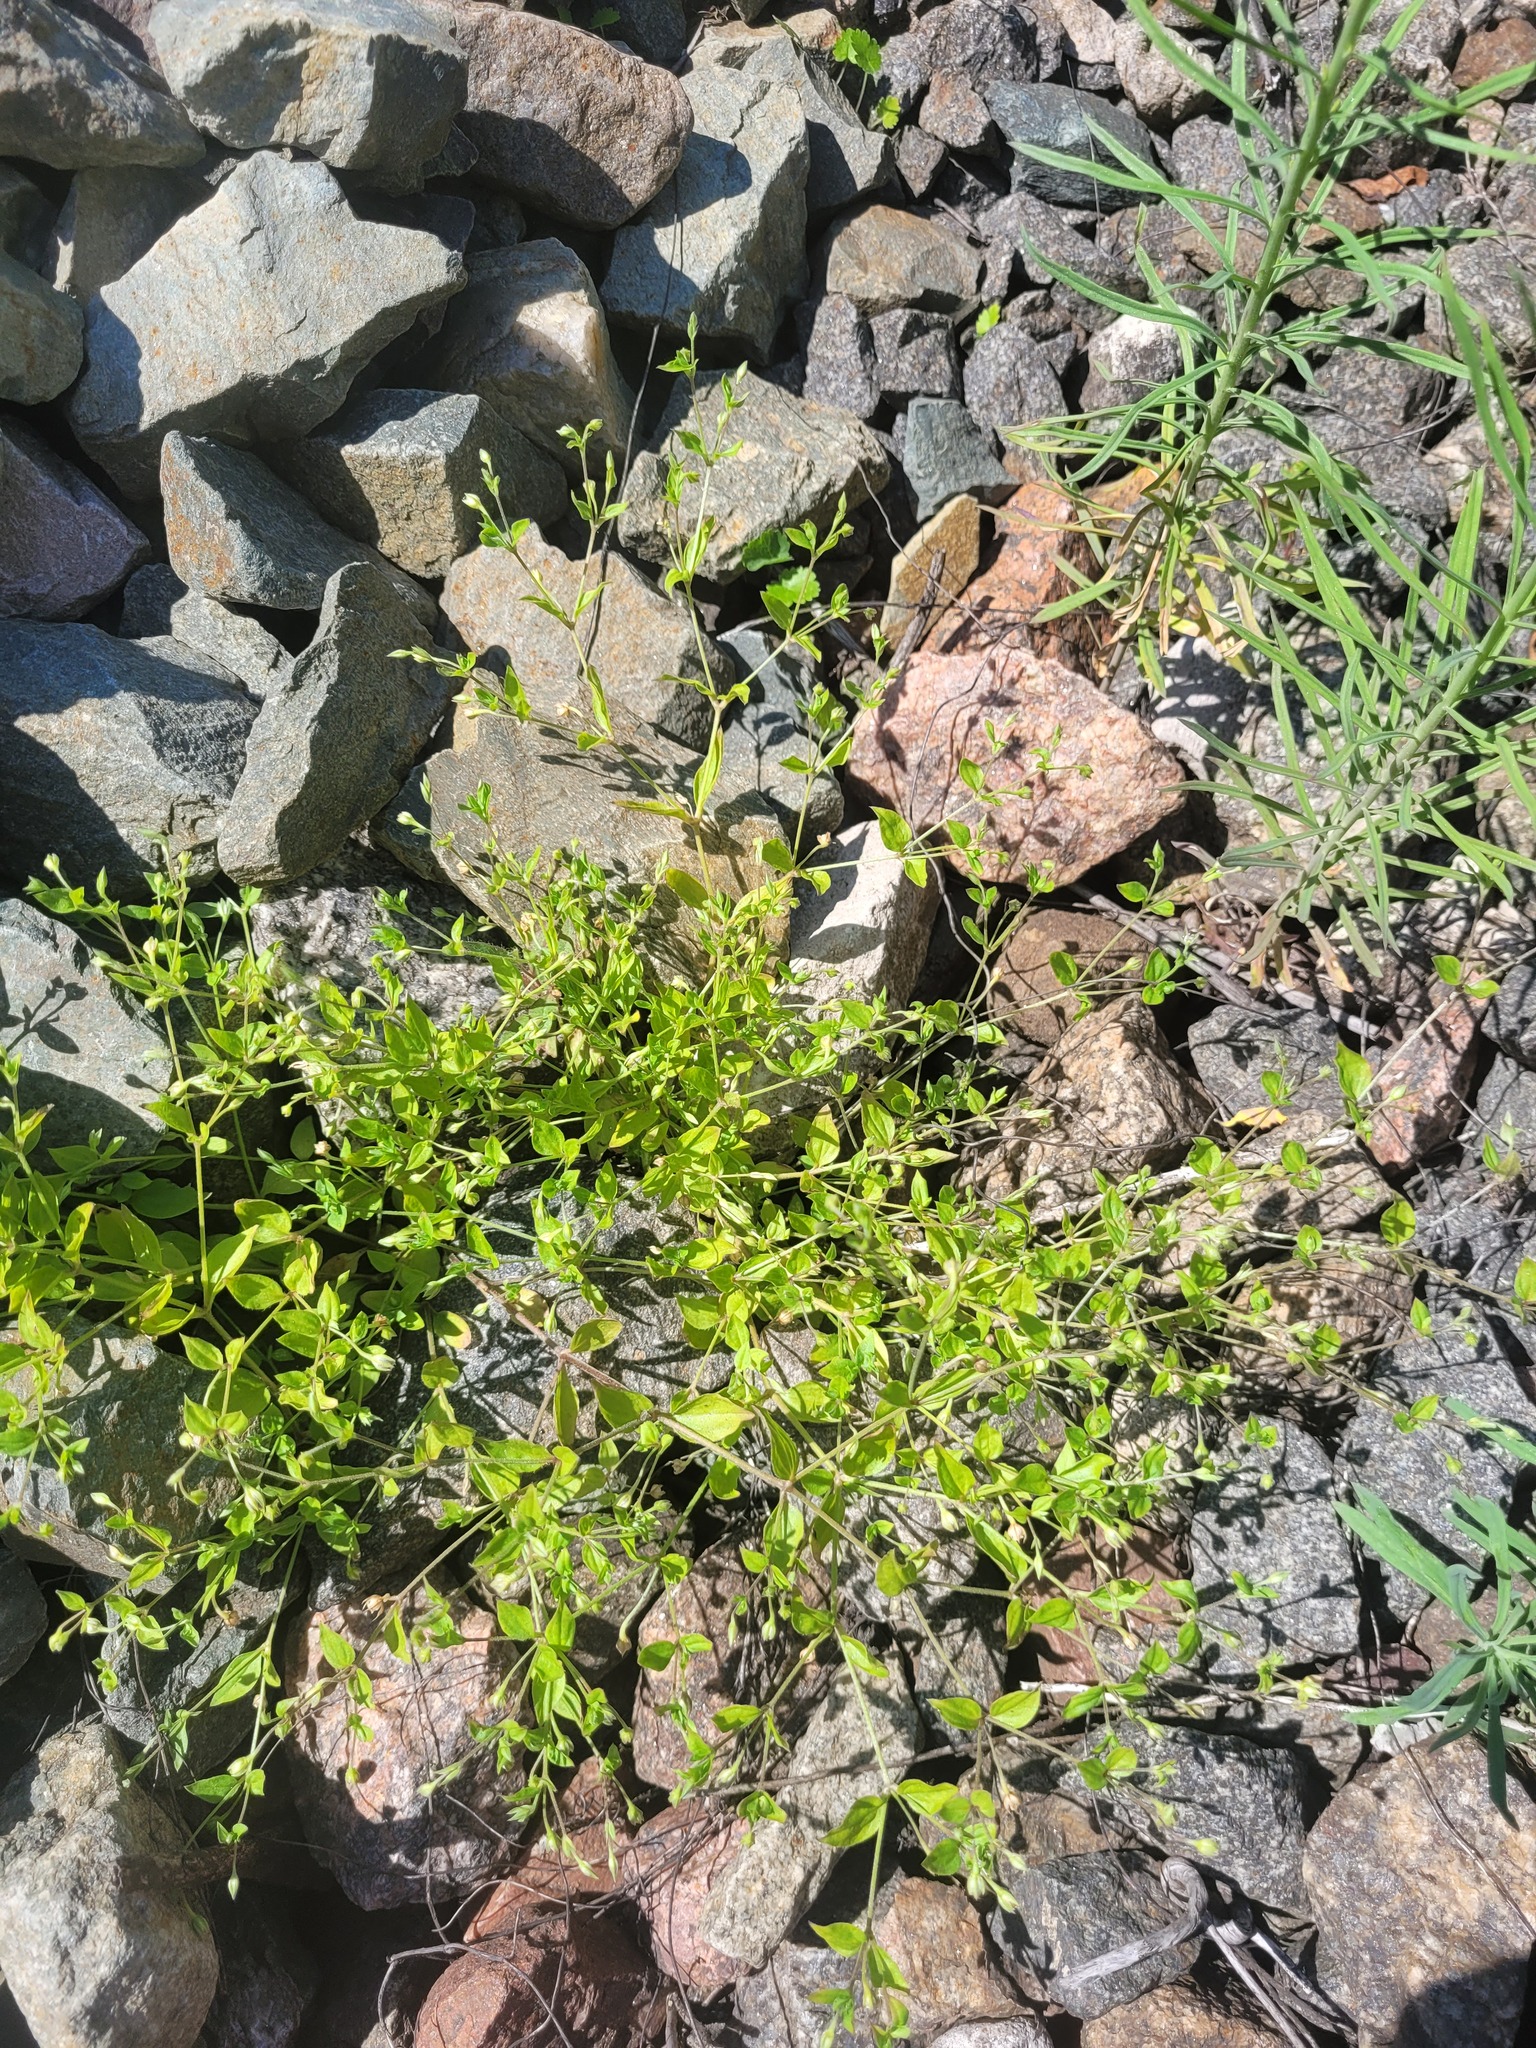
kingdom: Plantae
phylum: Tracheophyta
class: Magnoliopsida
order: Caryophyllales
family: Caryophyllaceae
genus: Moehringia
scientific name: Moehringia trinervia
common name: Three-nerved sandwort
